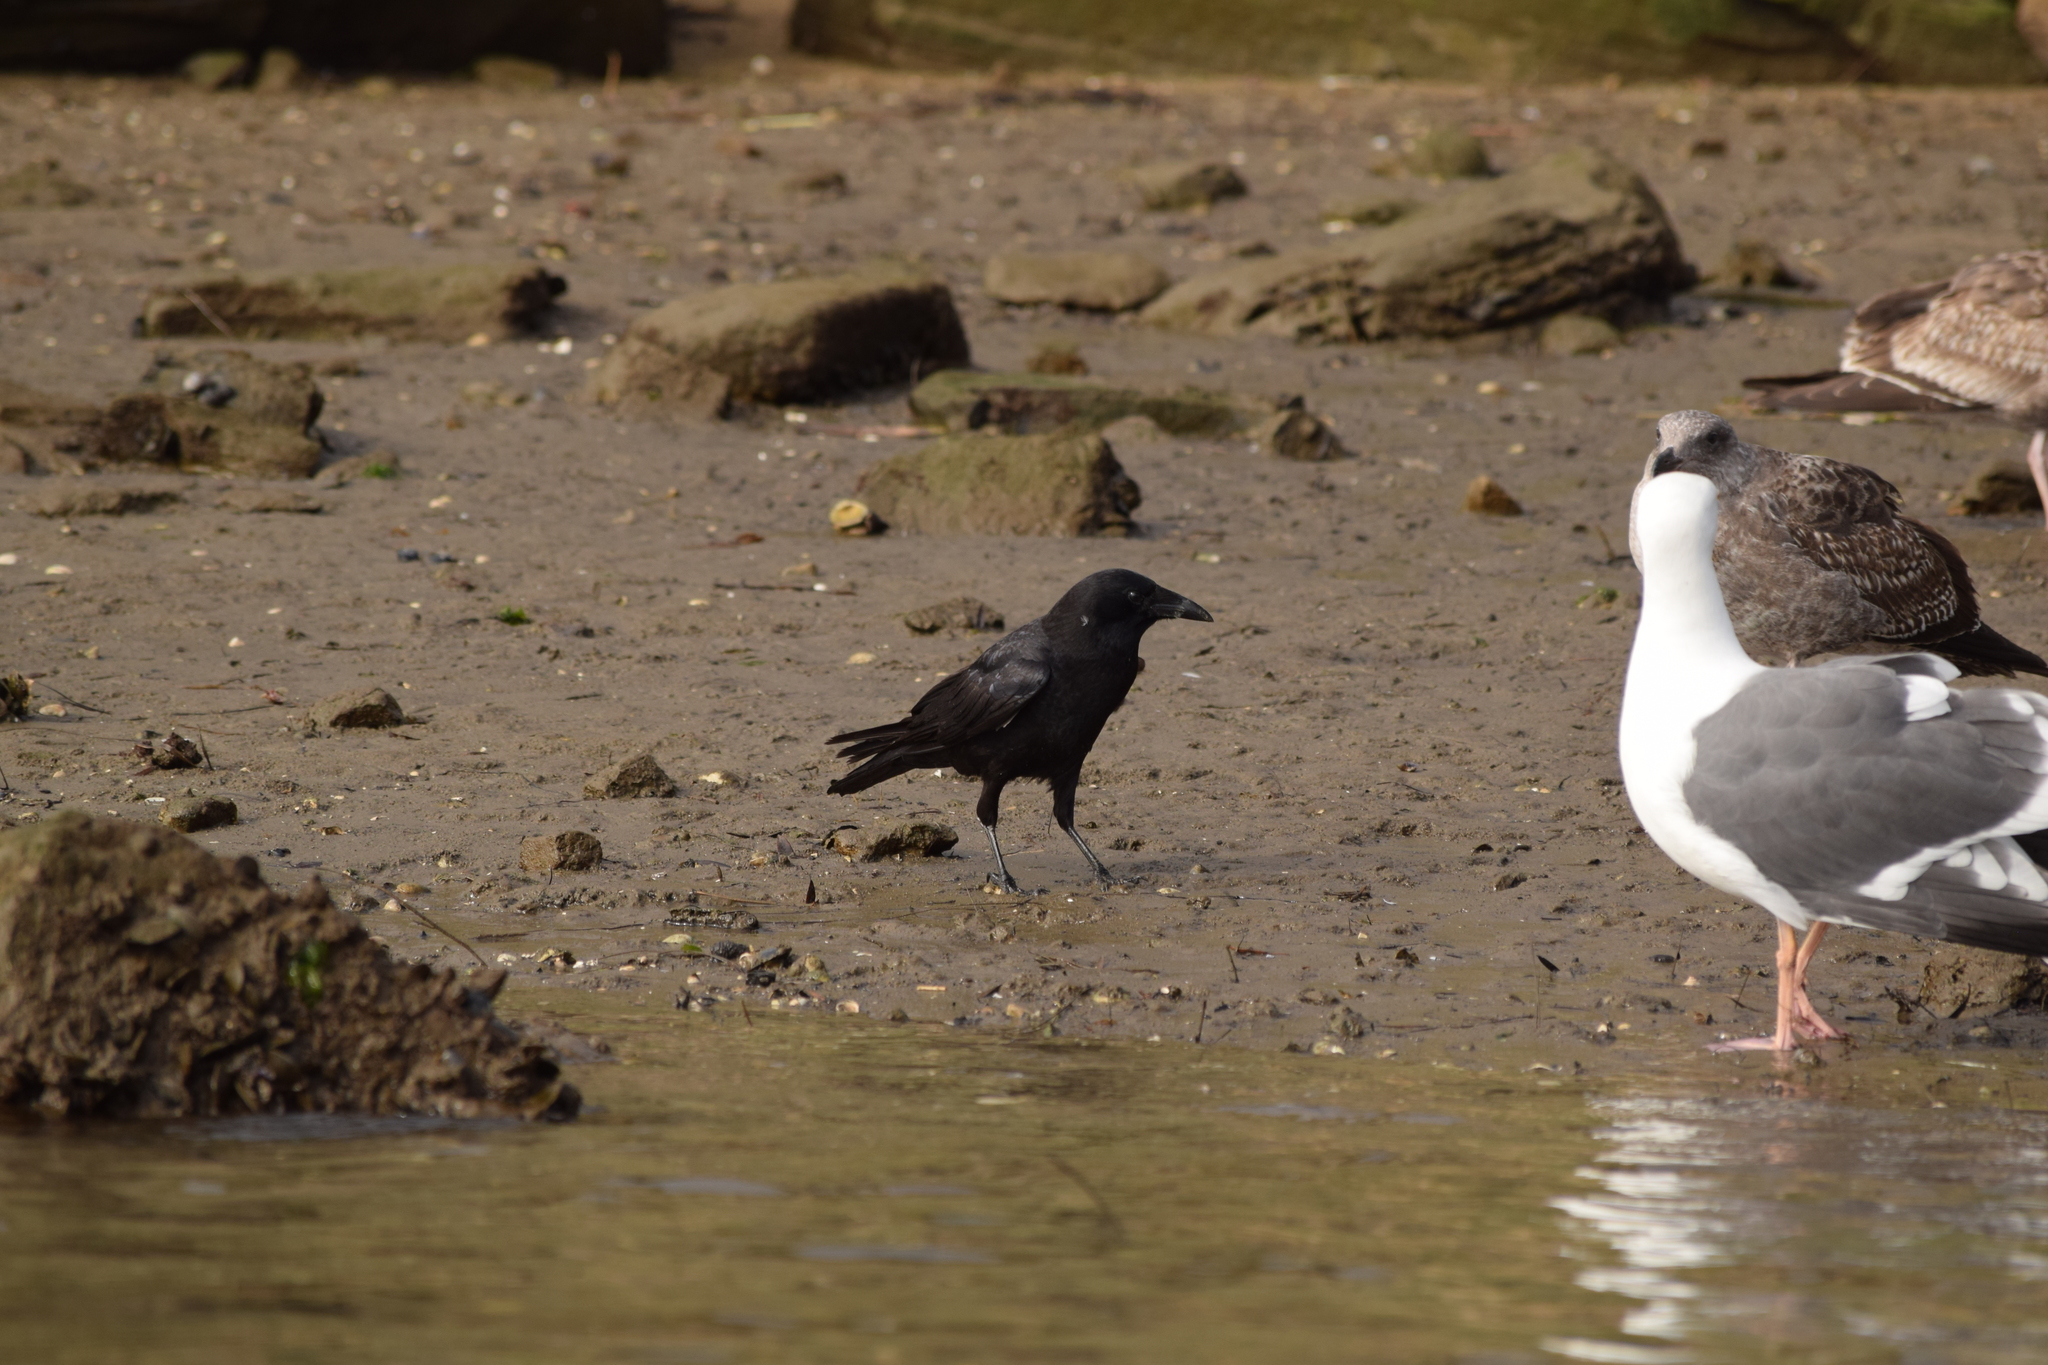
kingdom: Animalia
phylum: Chordata
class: Aves
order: Passeriformes
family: Corvidae
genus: Corvus
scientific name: Corvus brachyrhynchos
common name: American crow
